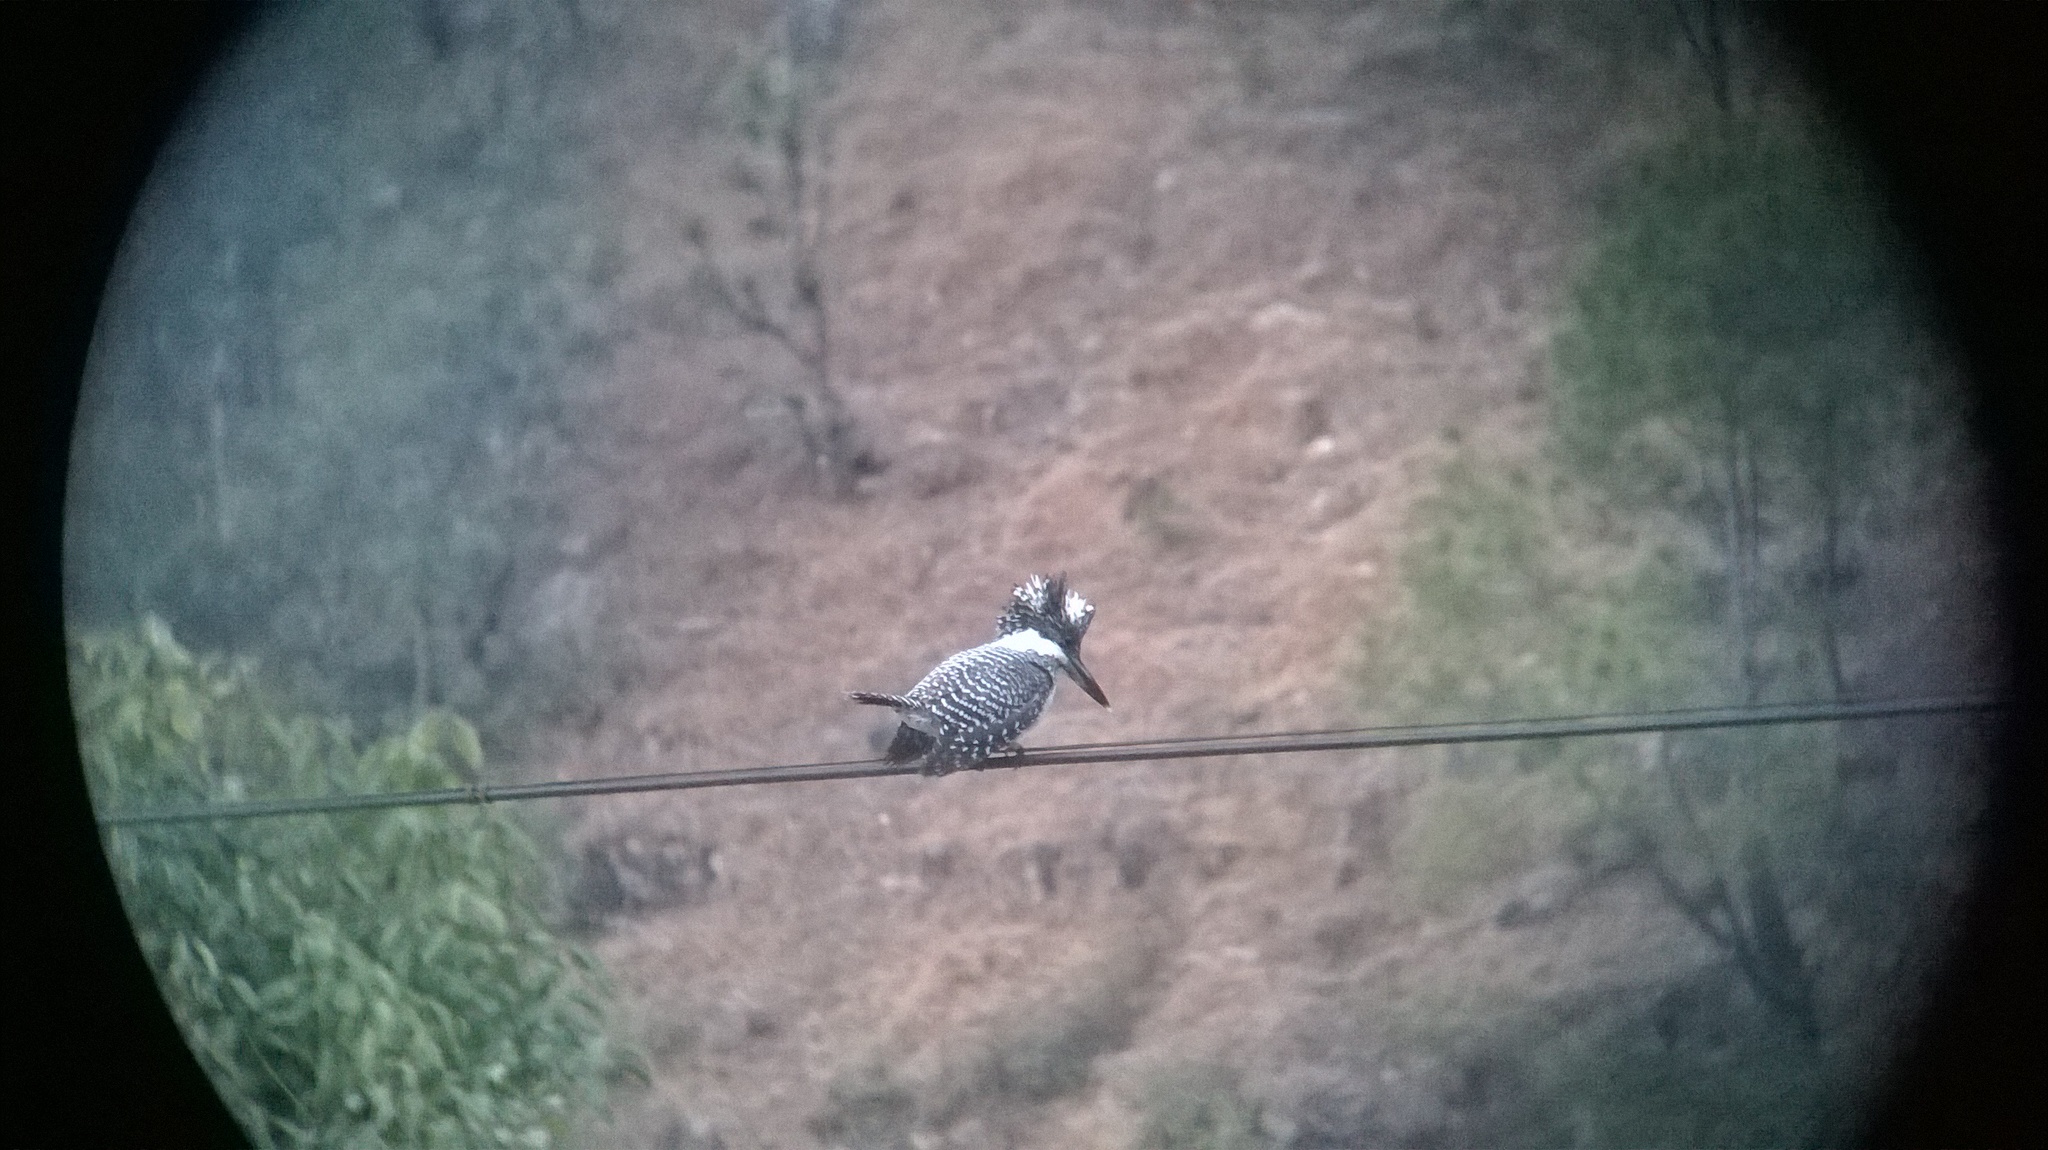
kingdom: Animalia
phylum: Chordata
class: Aves
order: Coraciiformes
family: Alcedinidae
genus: Megaceryle
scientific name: Megaceryle lugubris
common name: Crested kingfisher
